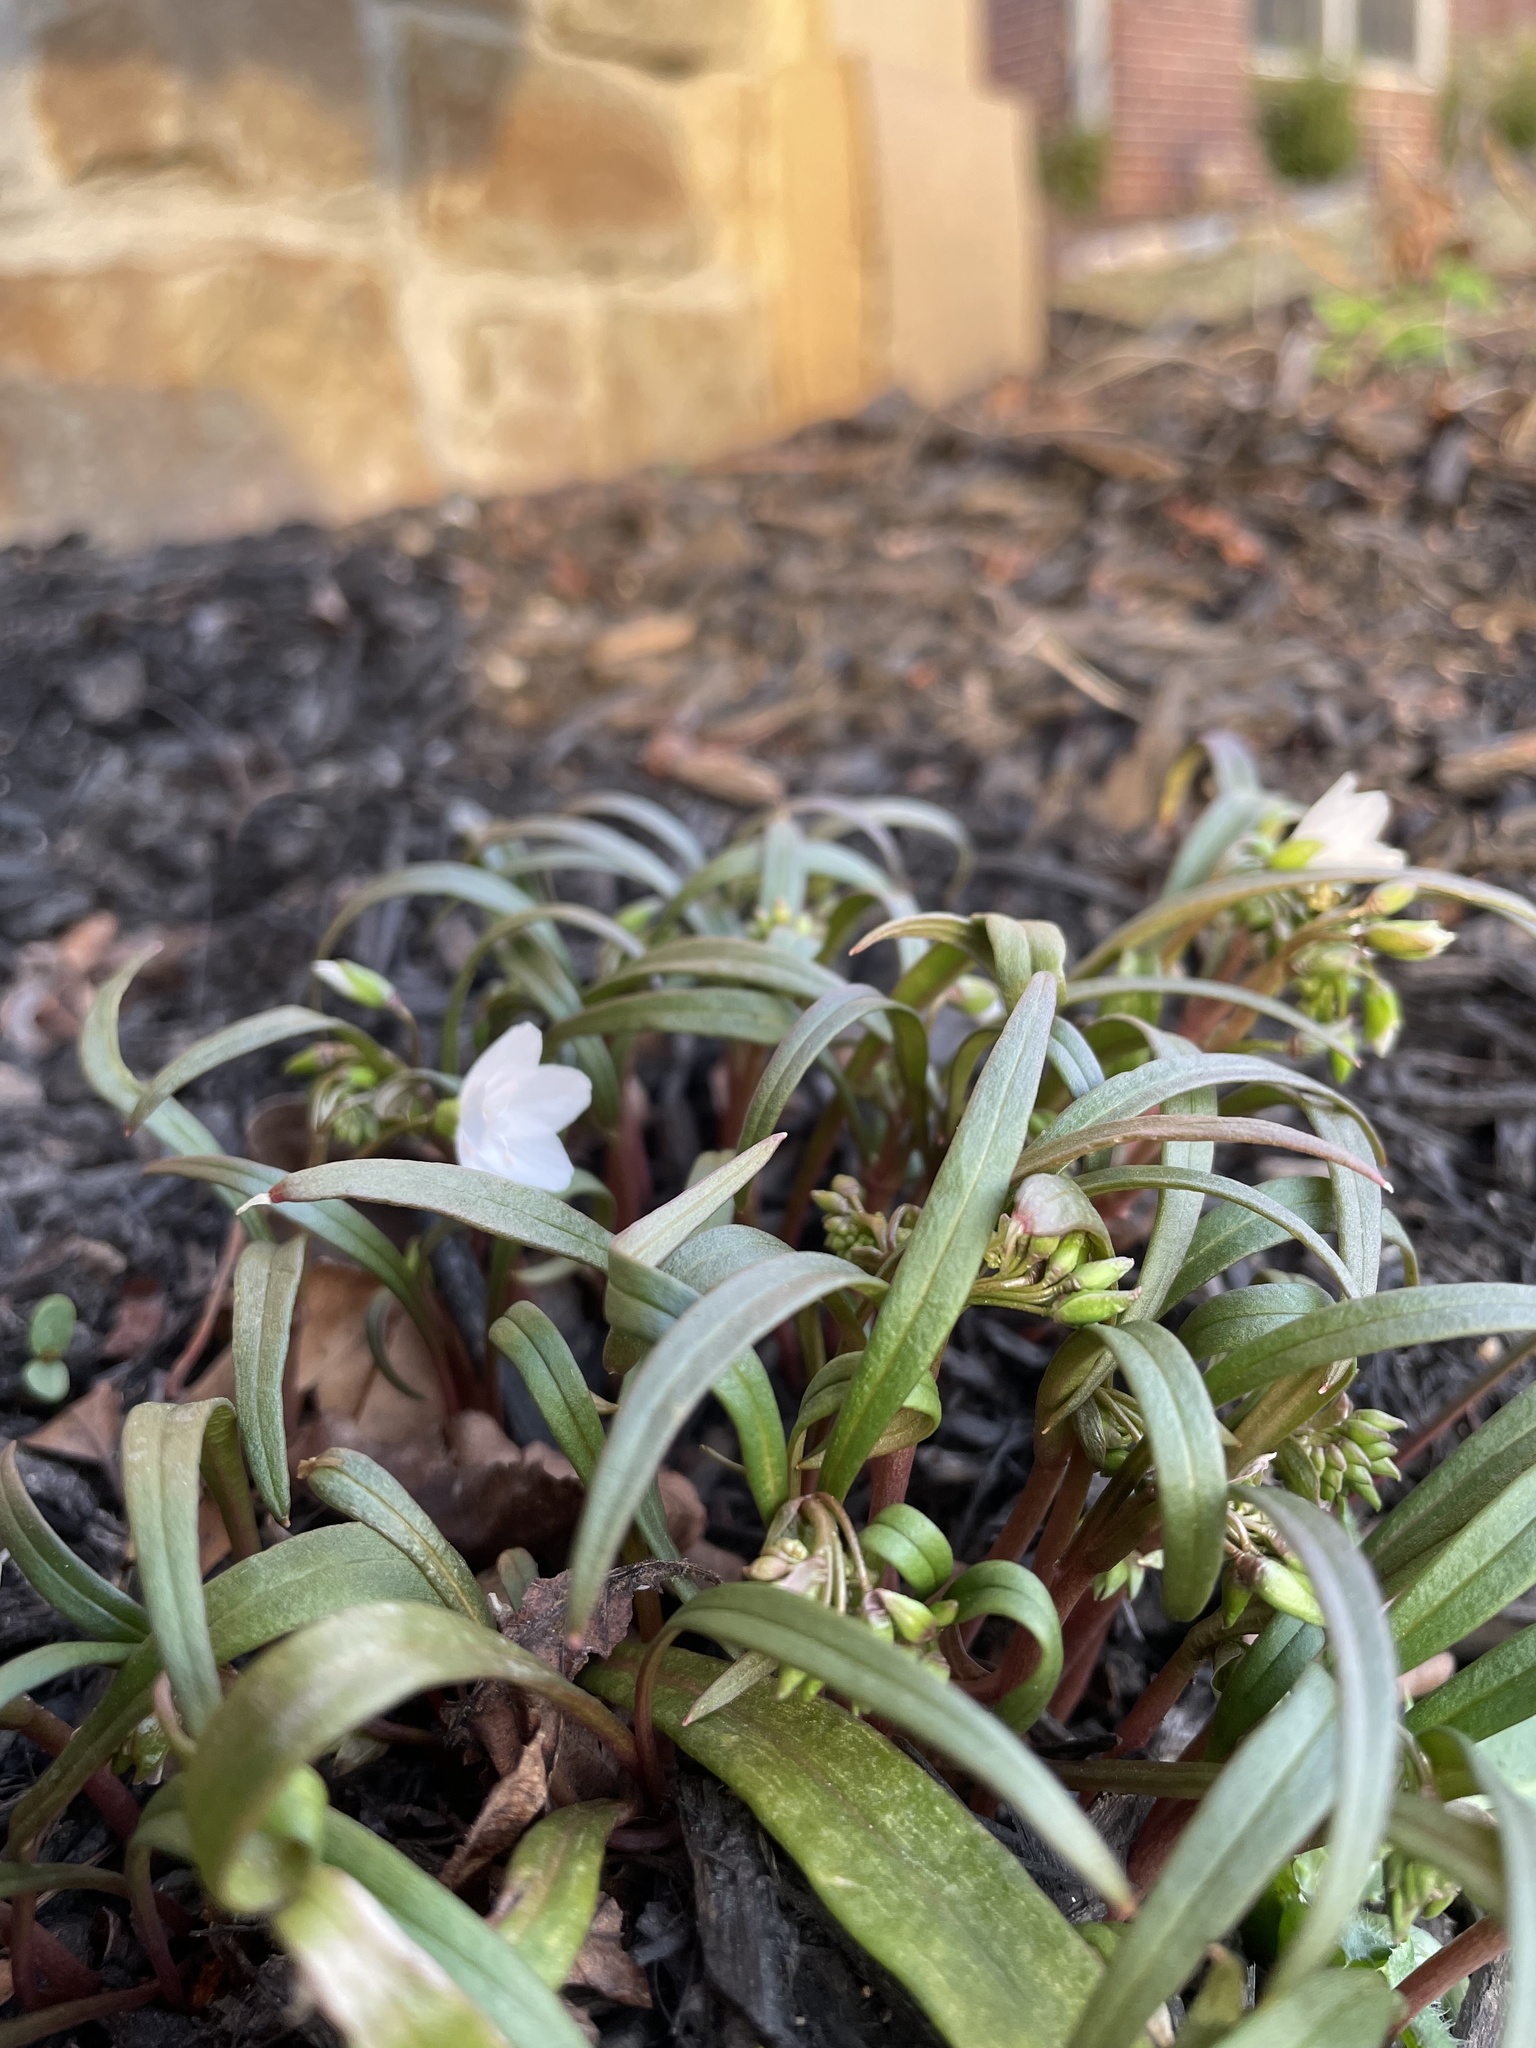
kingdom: Plantae
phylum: Tracheophyta
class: Magnoliopsida
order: Caryophyllales
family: Montiaceae
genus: Claytonia
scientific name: Claytonia virginica
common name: Virginia springbeauty
